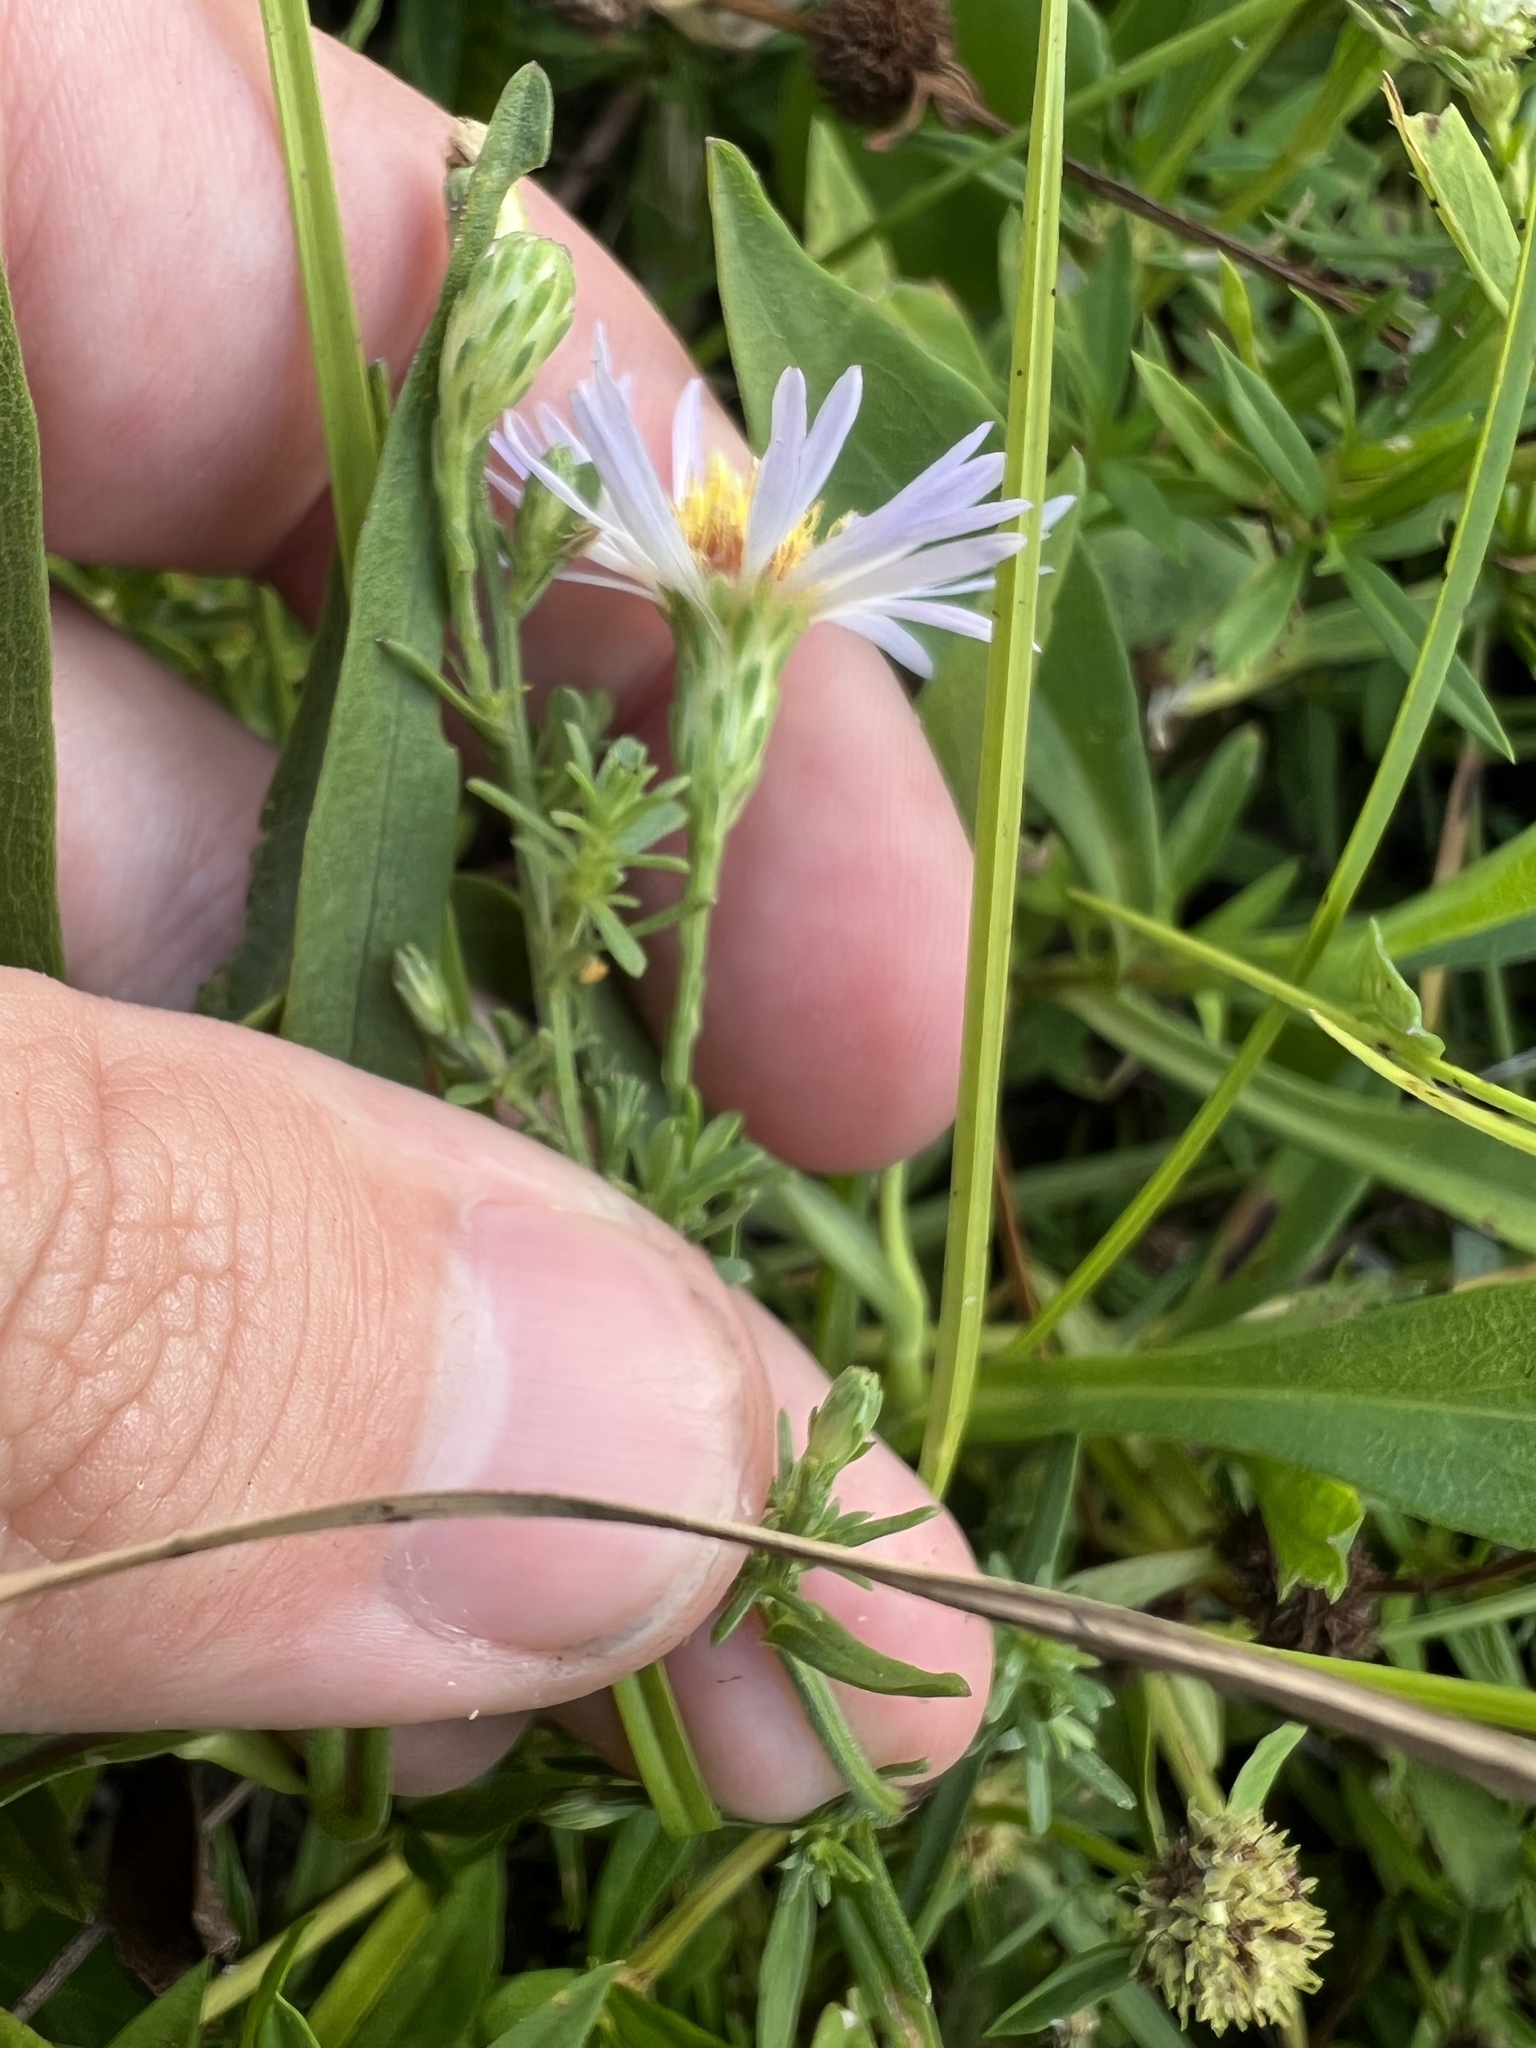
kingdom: Plantae
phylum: Tracheophyta
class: Magnoliopsida
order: Asterales
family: Asteraceae
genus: Symphyotrichum
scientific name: Symphyotrichum simmondsii
